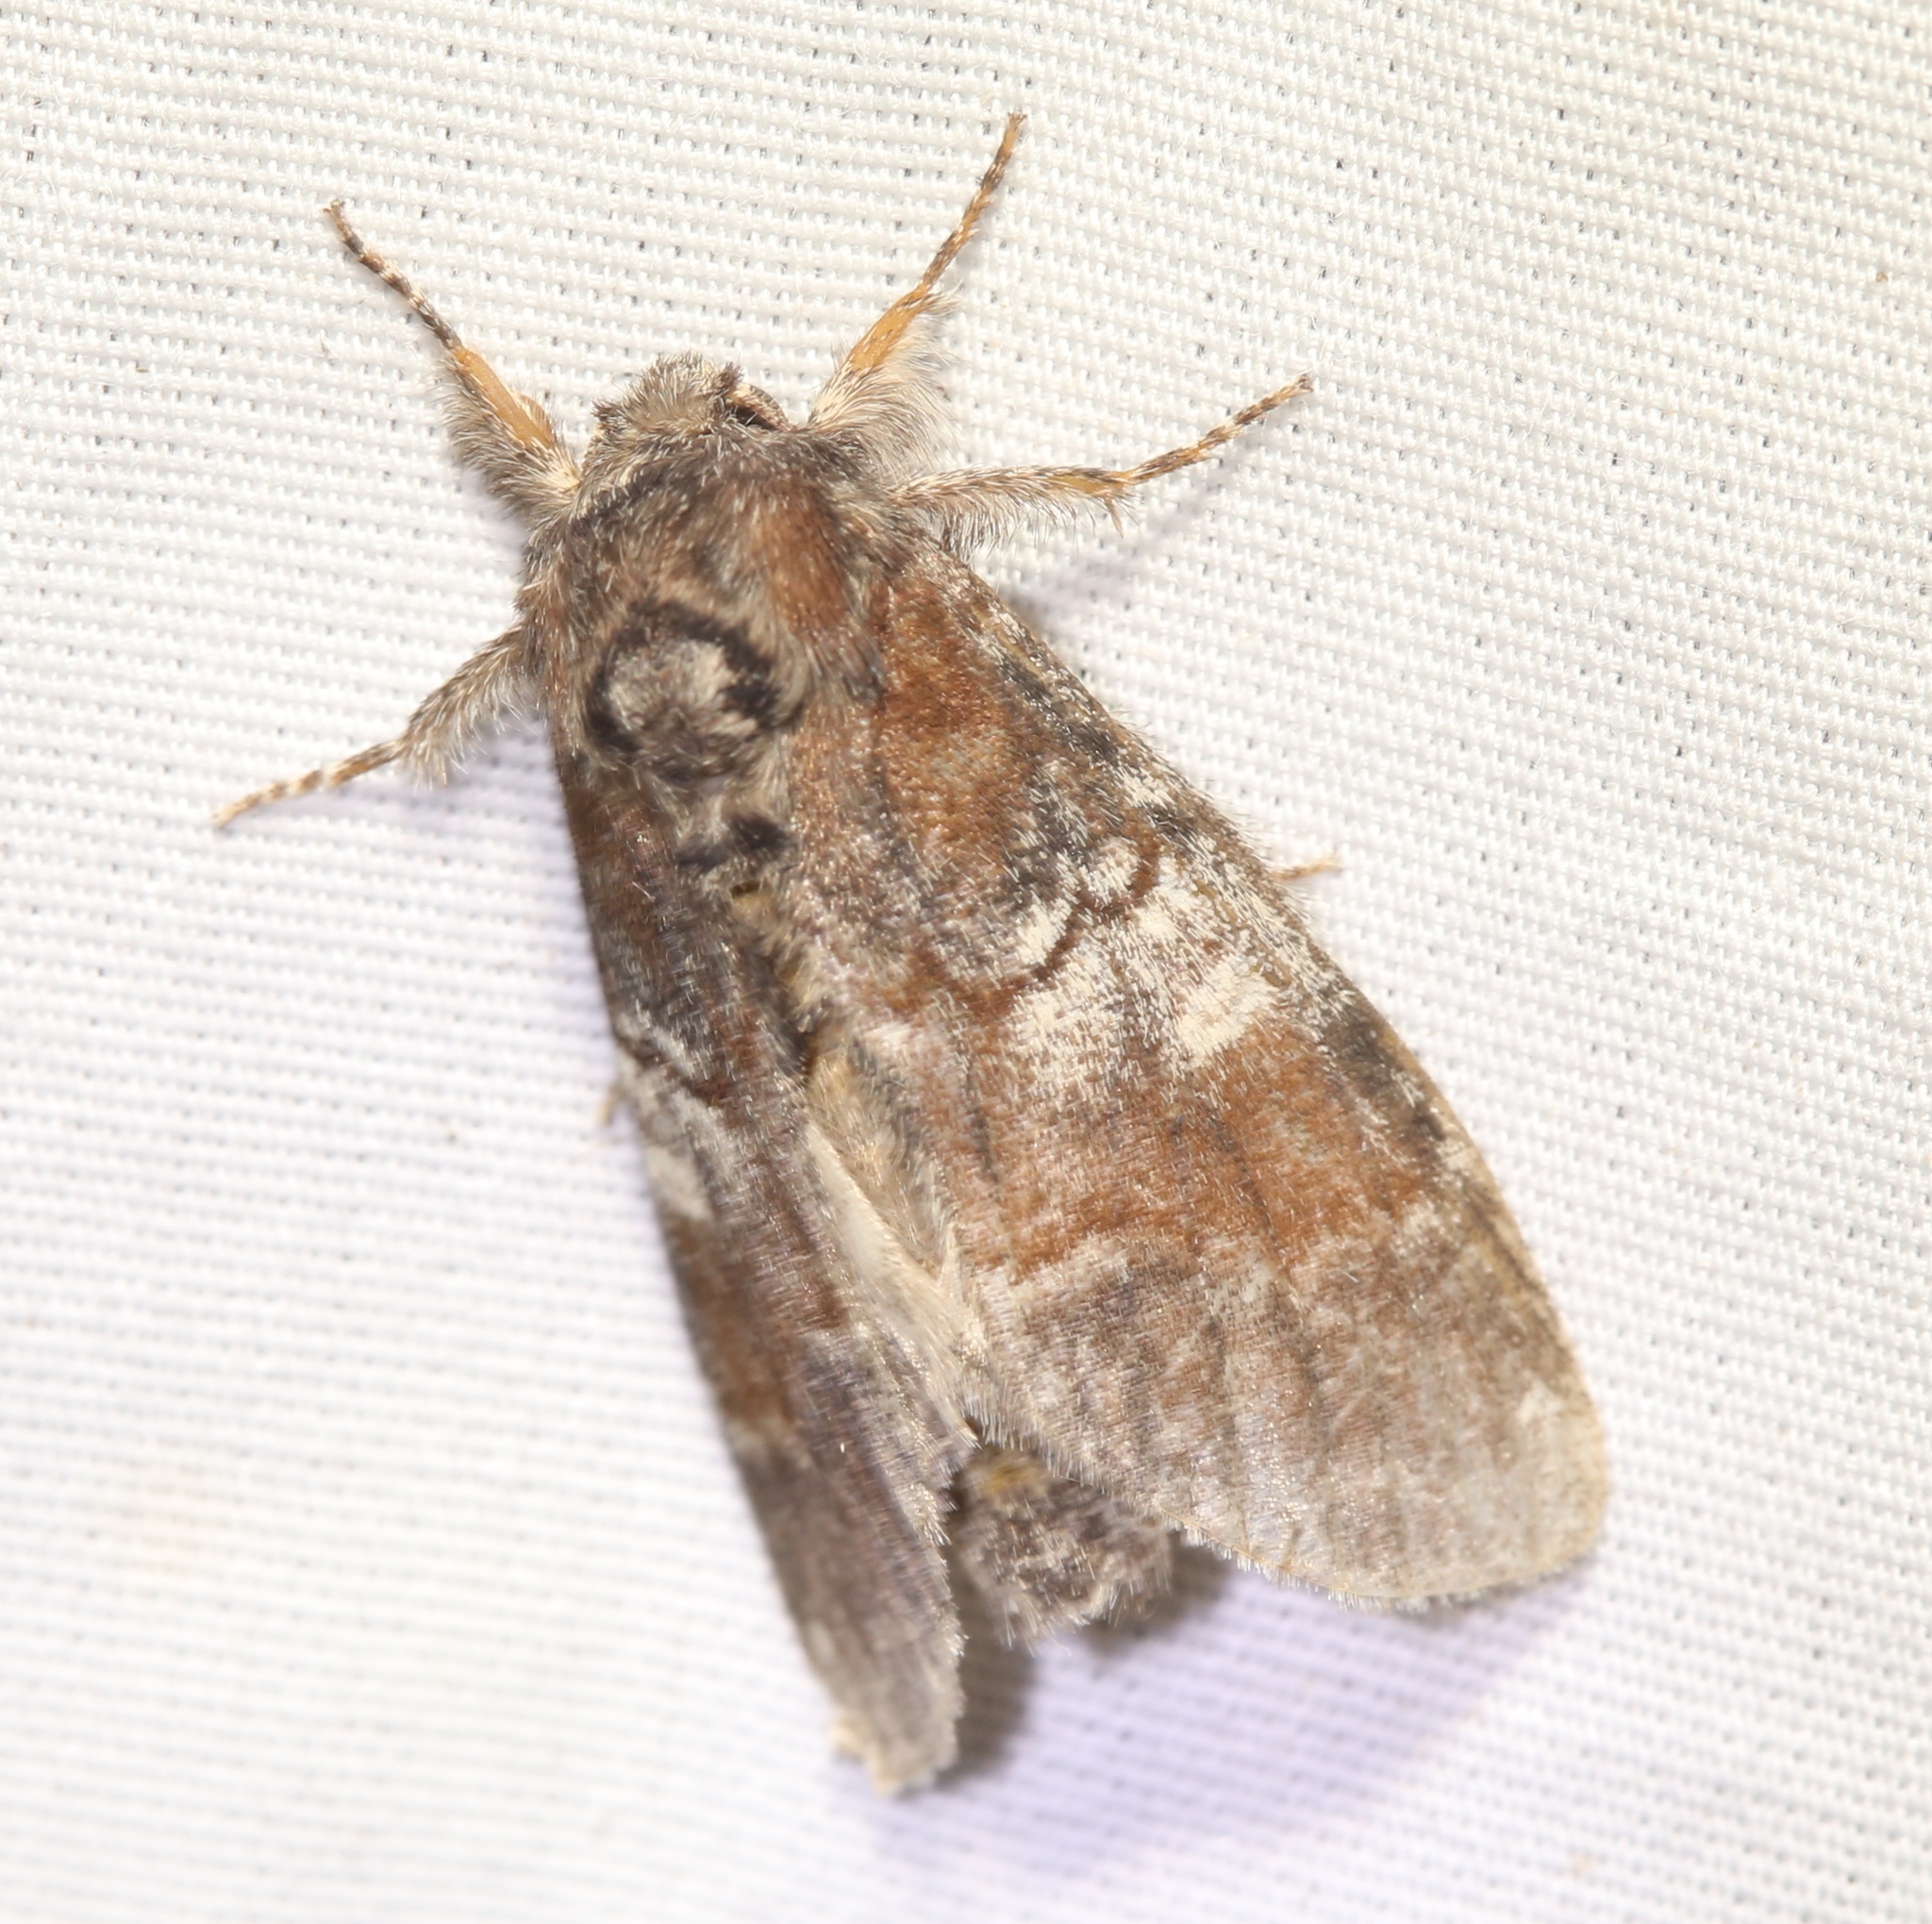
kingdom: Animalia
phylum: Arthropoda
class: Insecta
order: Lepidoptera
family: Notodontidae
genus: Peridea
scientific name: Peridea ferruginea
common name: Chocolate prominent
